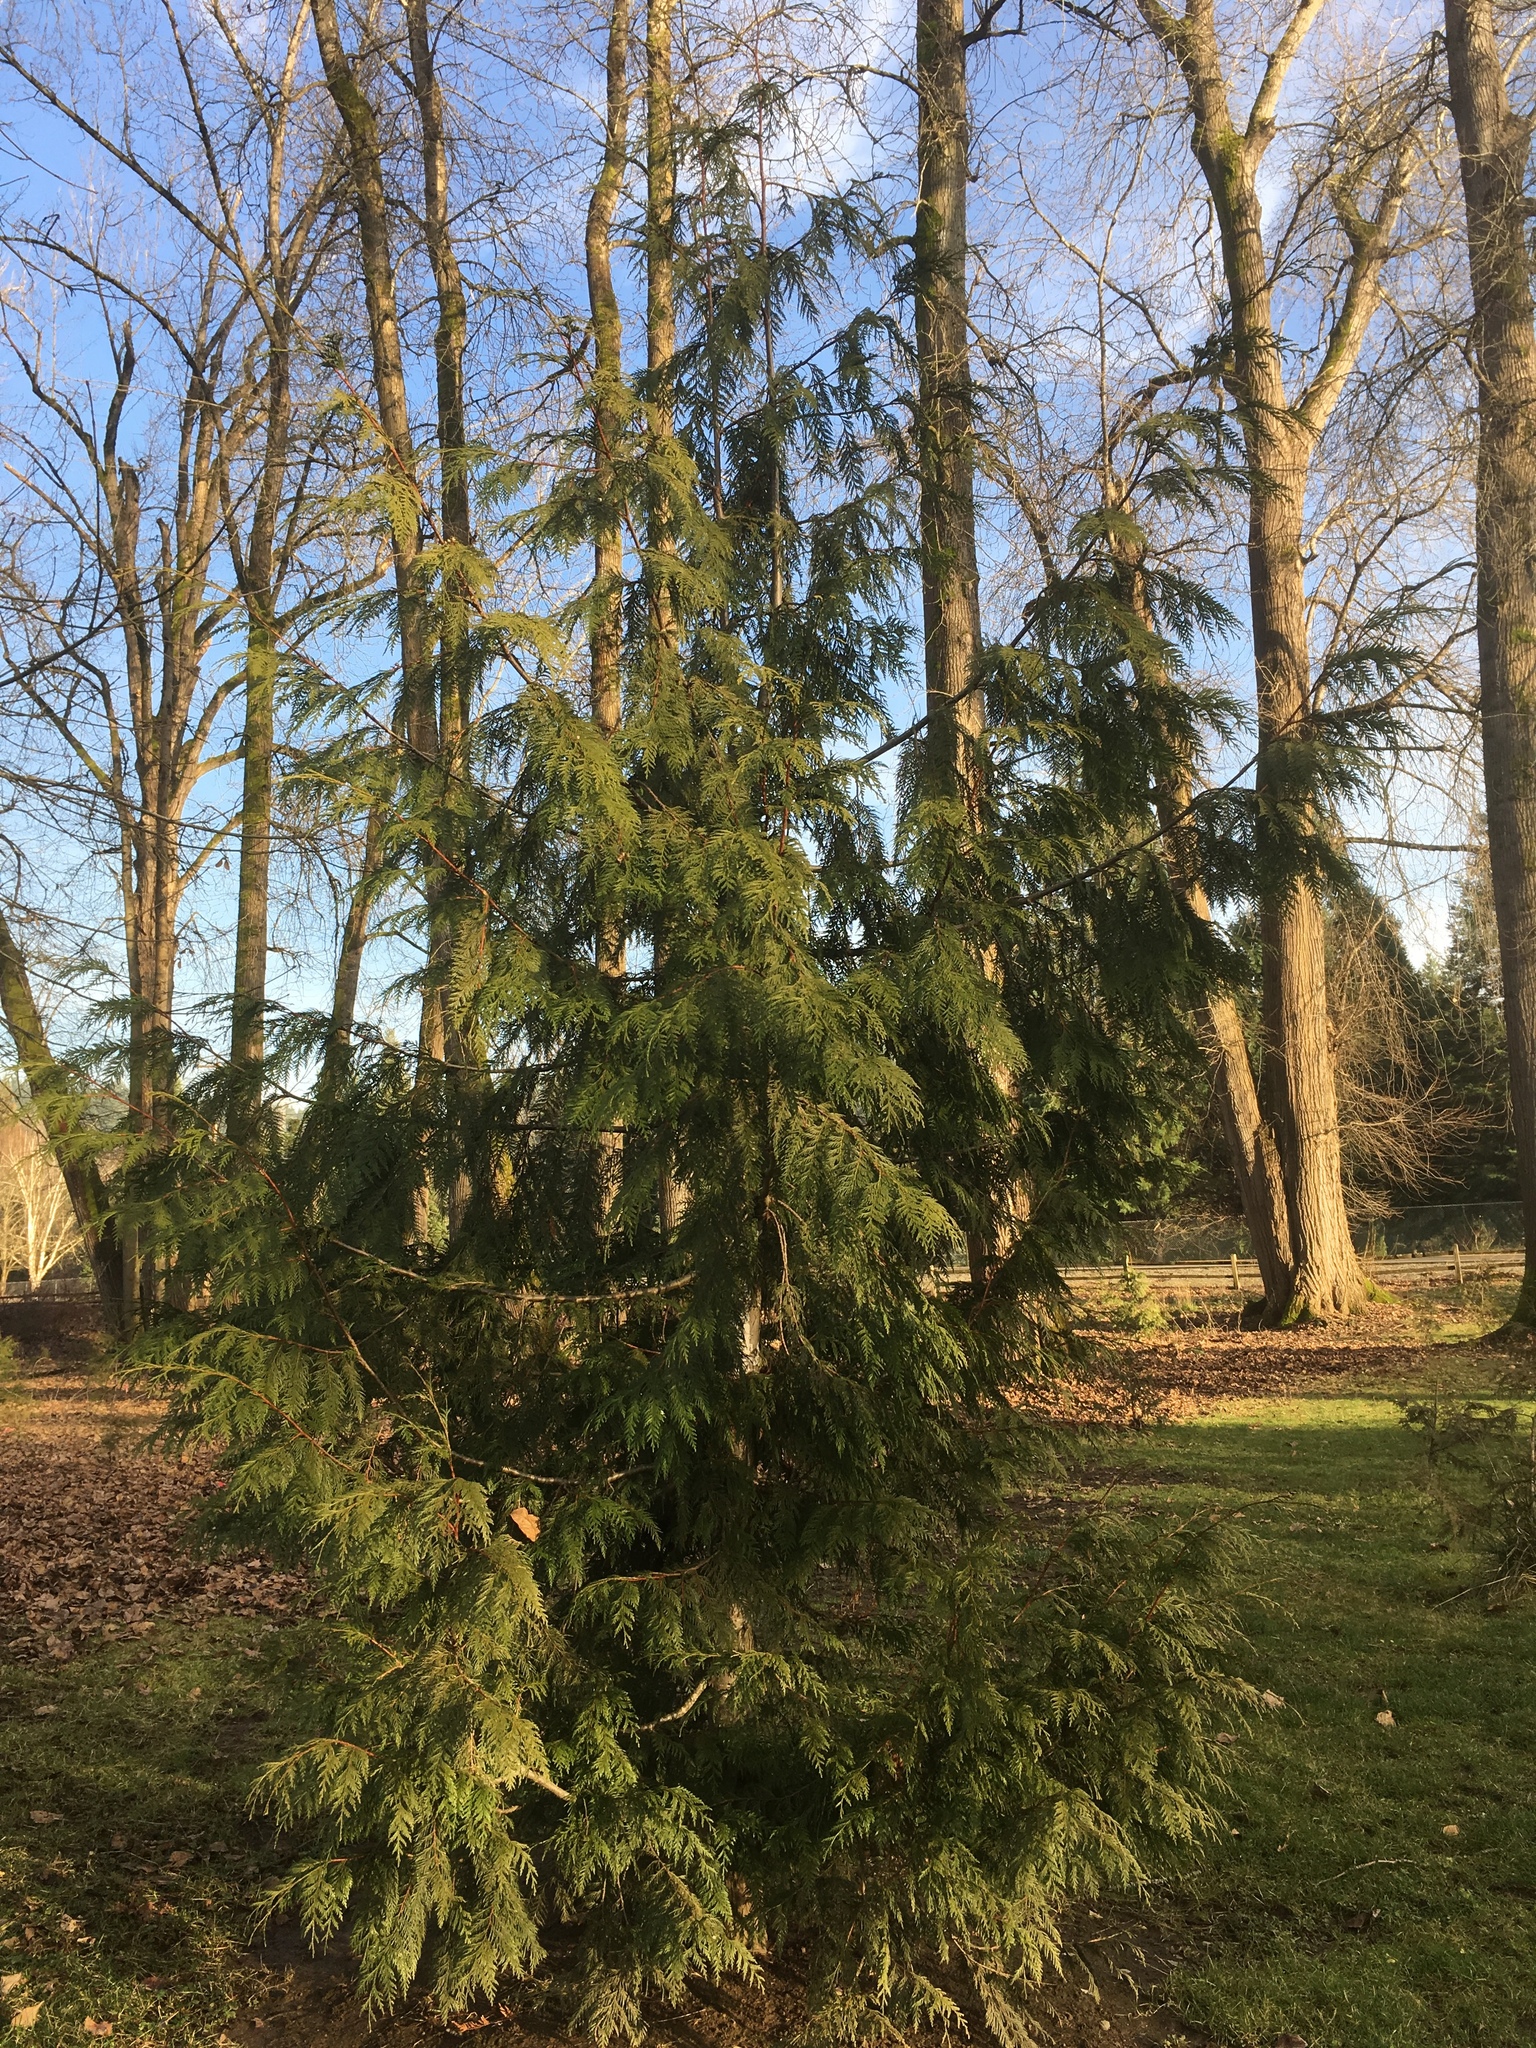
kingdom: Plantae
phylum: Tracheophyta
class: Pinopsida
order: Pinales
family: Cupressaceae
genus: Thuja
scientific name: Thuja plicata
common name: Western red-cedar
